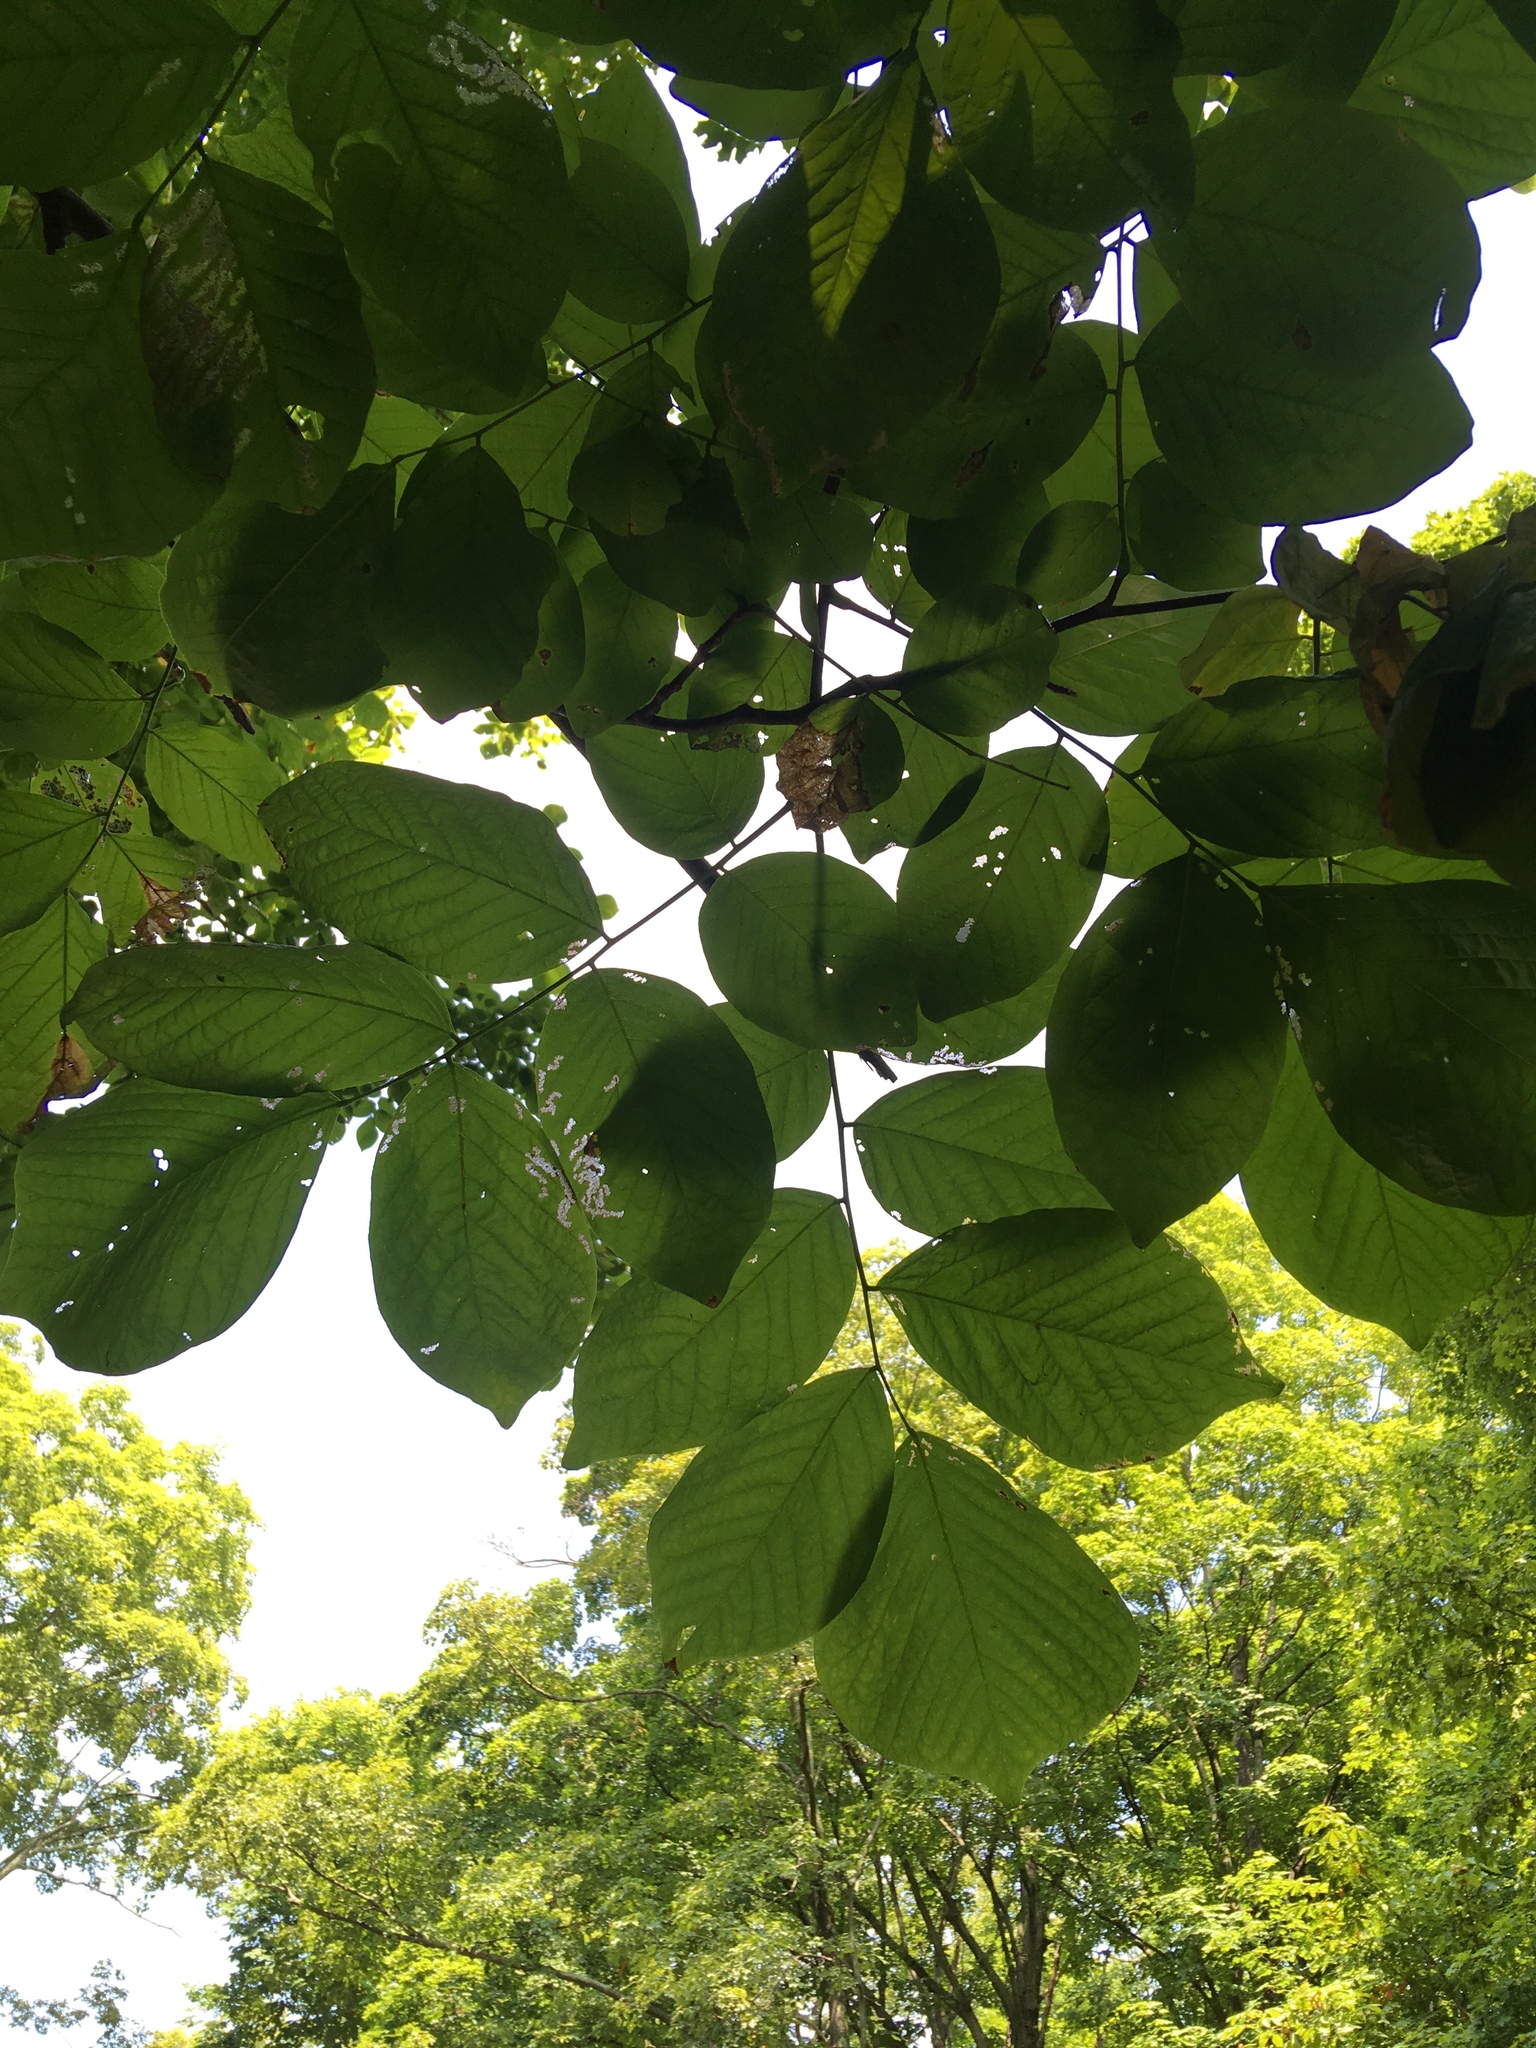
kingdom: Plantae
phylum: Tracheophyta
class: Magnoliopsida
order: Fabales
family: Fabaceae
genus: Cladrastis
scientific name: Cladrastis kentukea
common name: Kentucky yellow-wood
